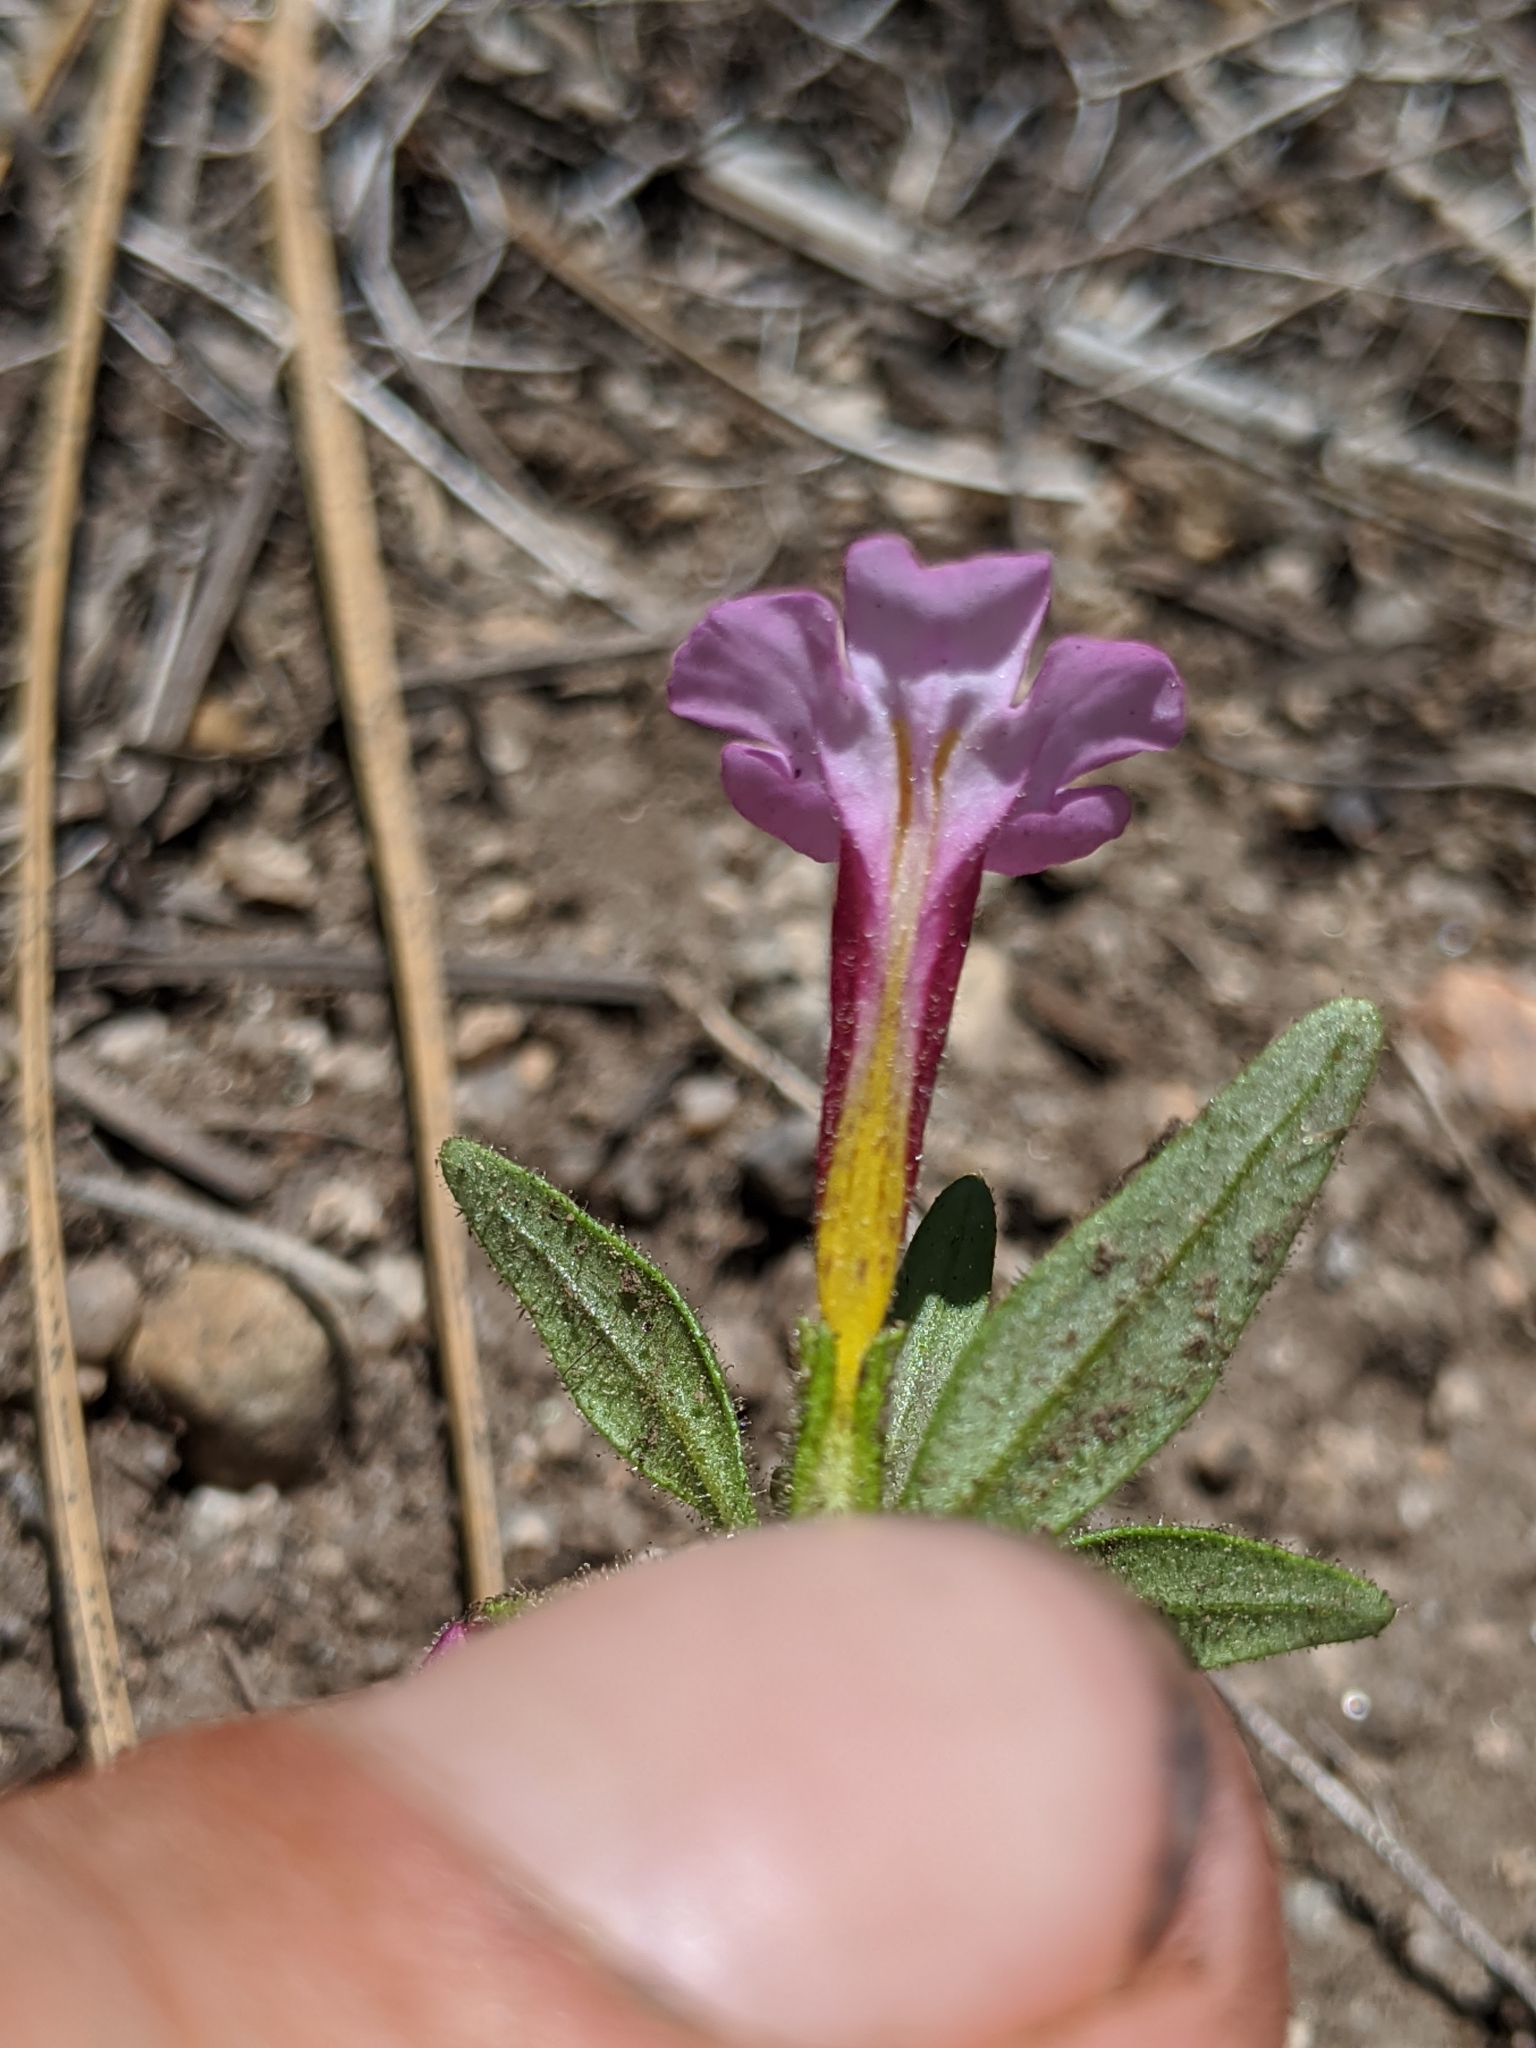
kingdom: Plantae
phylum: Tracheophyta
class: Magnoliopsida
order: Lamiales
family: Phrymaceae
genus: Diplacus
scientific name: Diplacus torreyi
